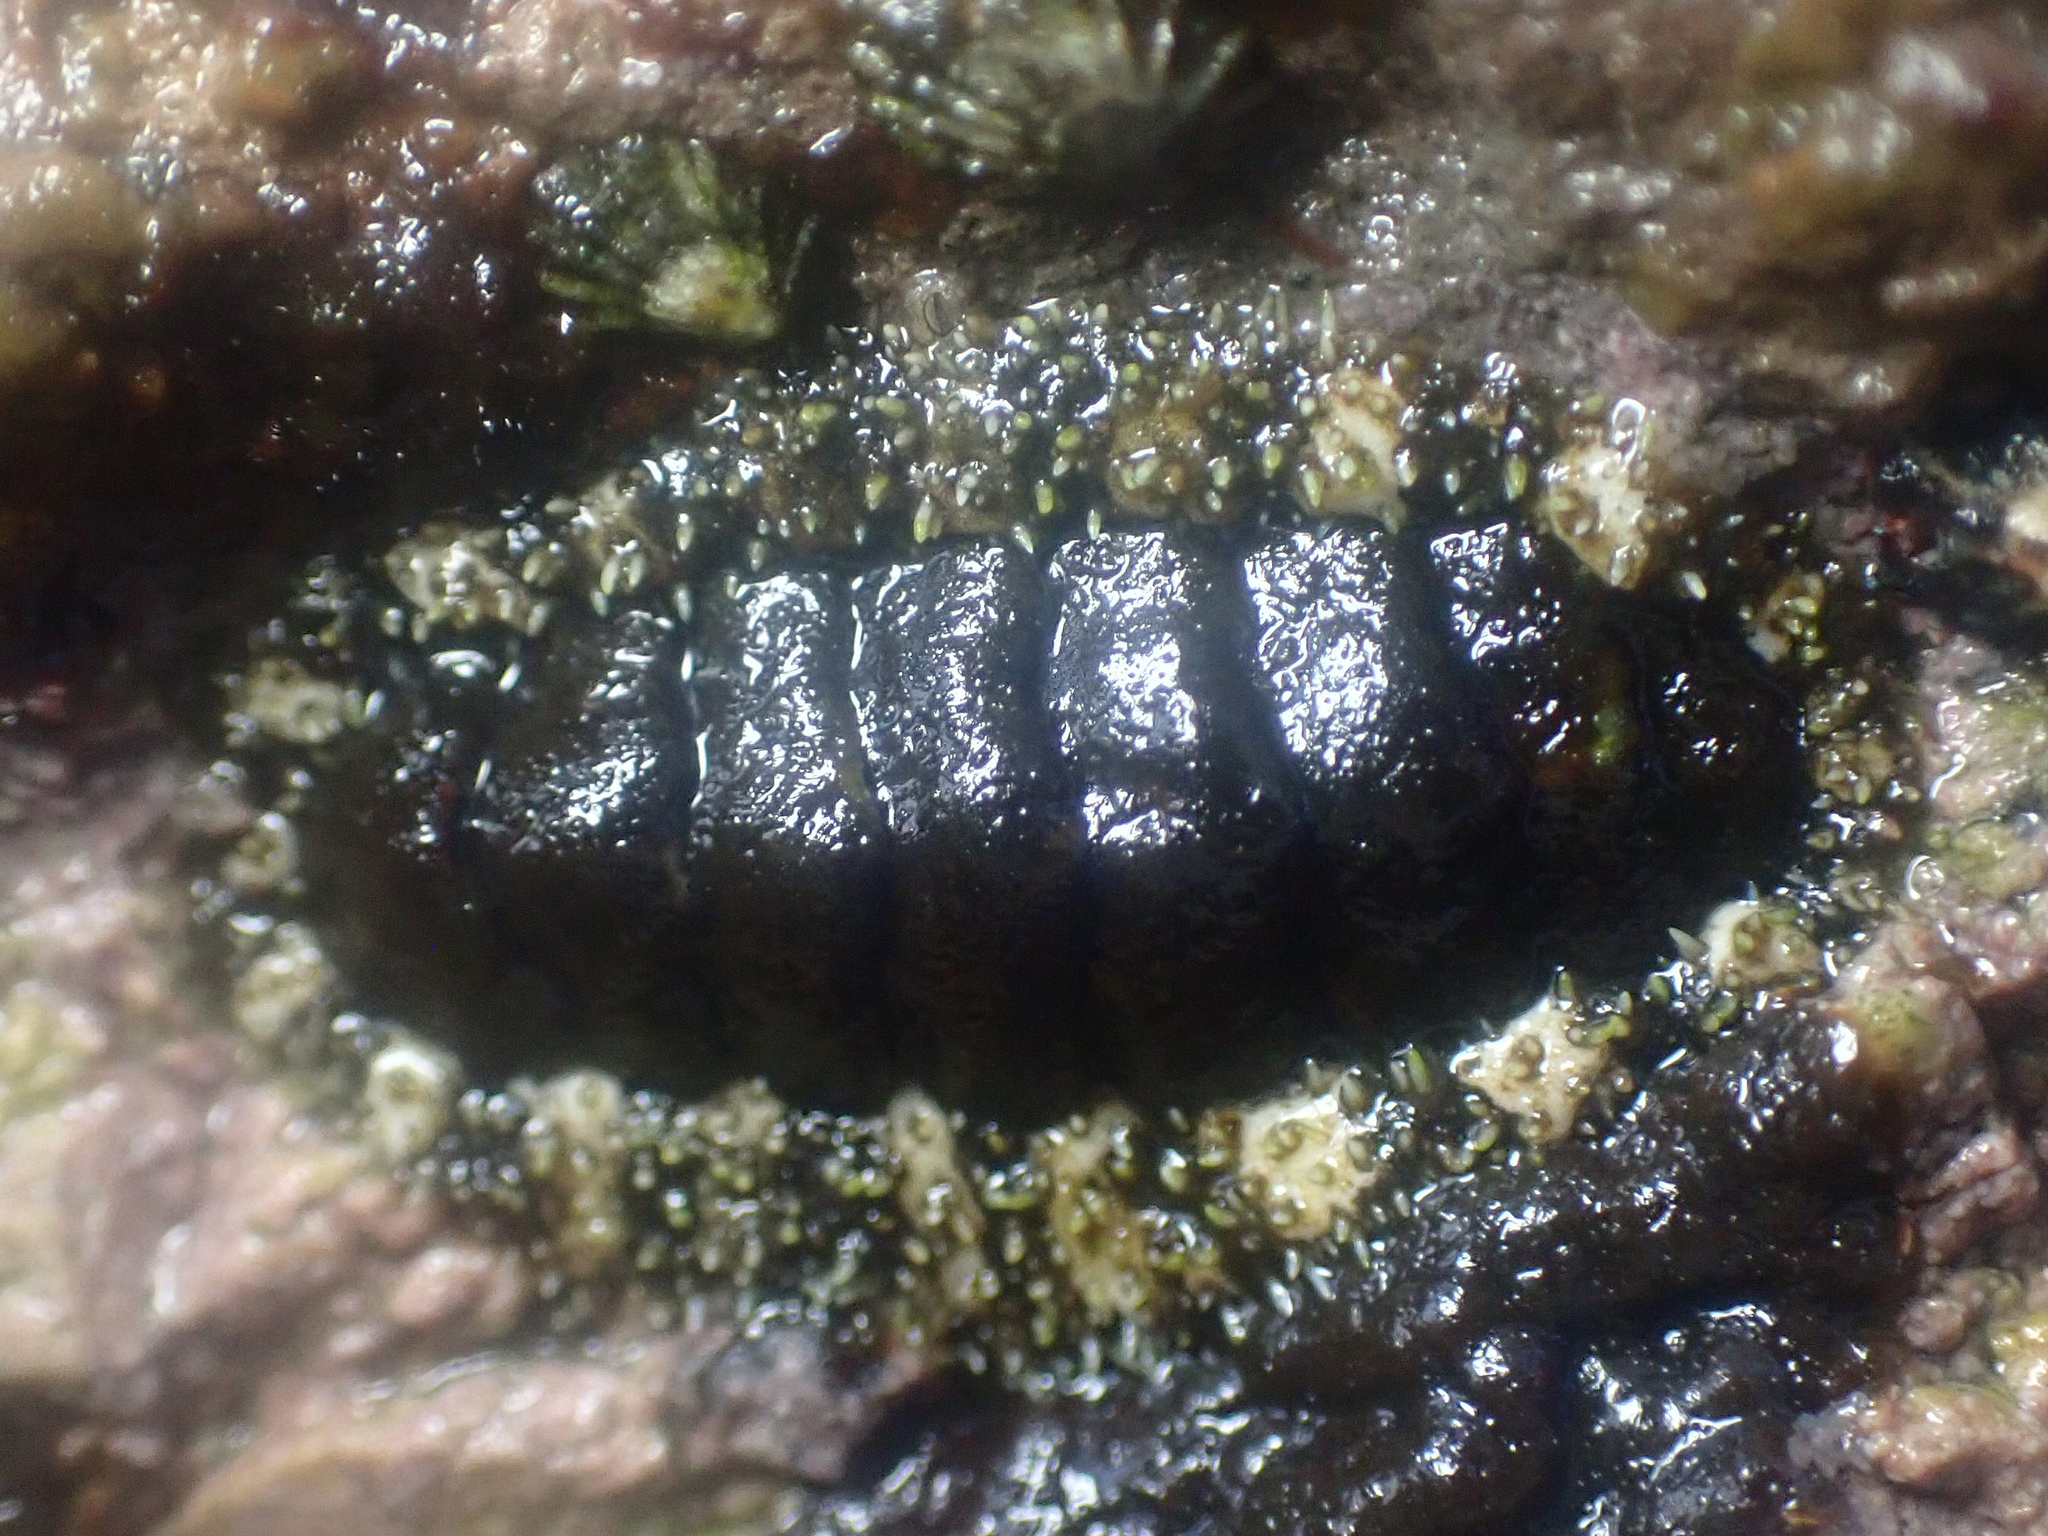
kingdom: Animalia
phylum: Mollusca
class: Polyplacophora
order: Chitonida
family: Tonicellidae
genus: Nuttallina
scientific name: Nuttallina californica
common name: California nuttall chiton
